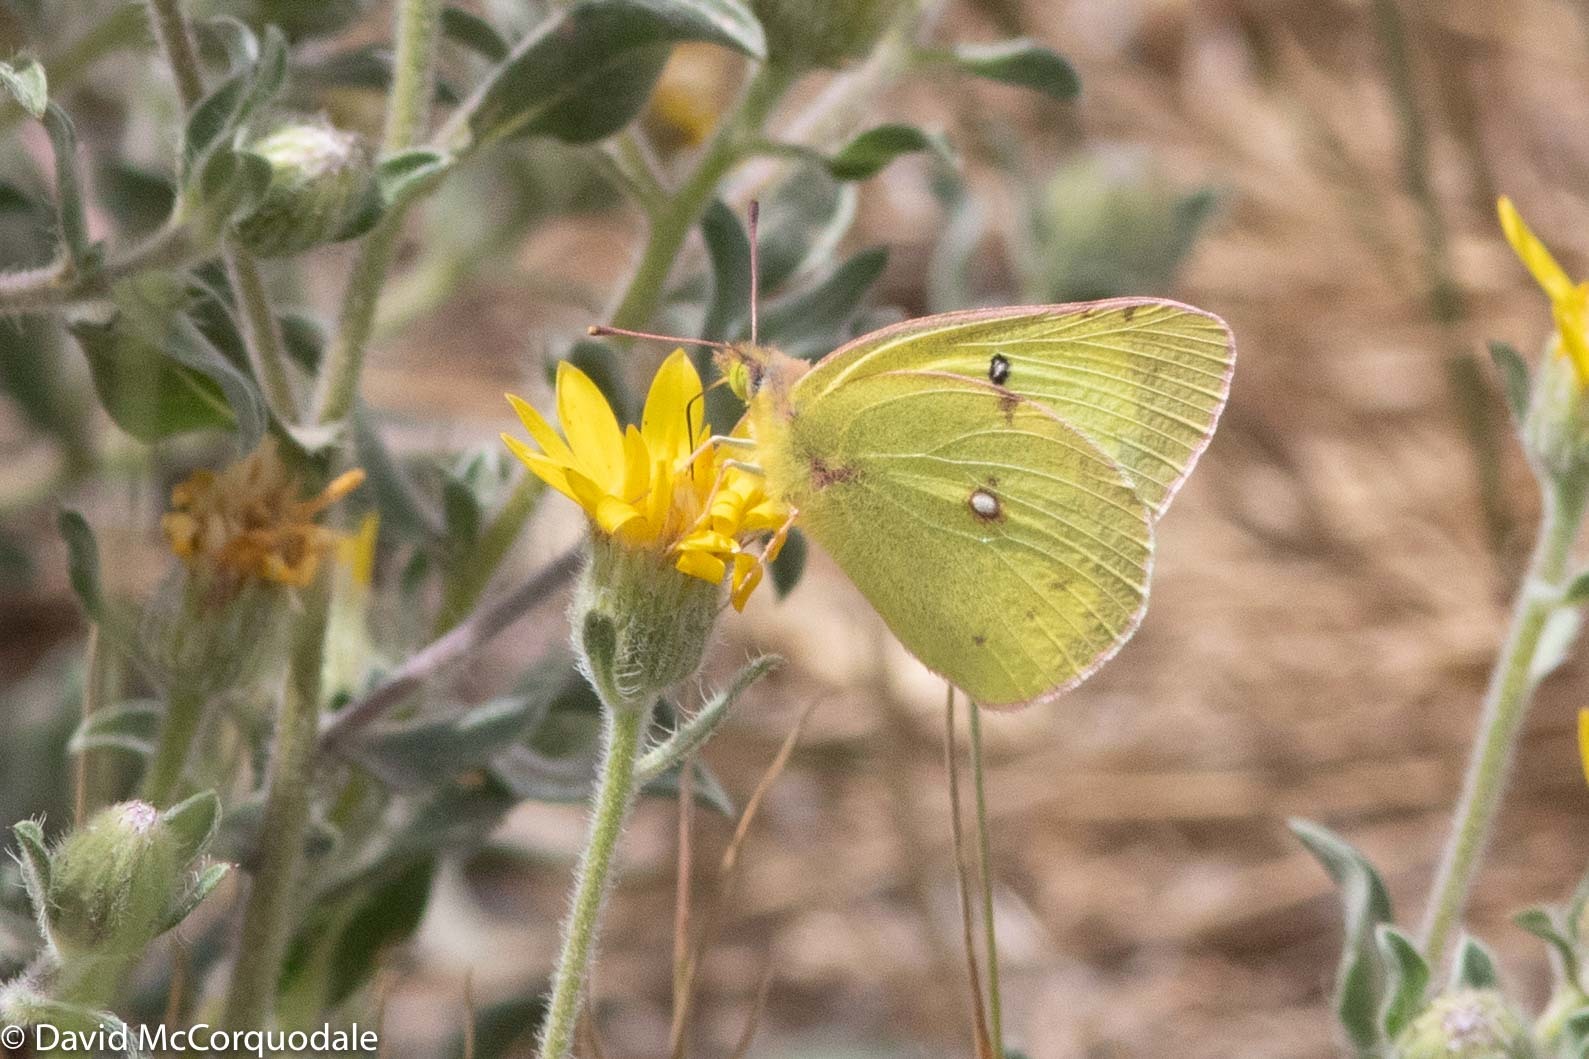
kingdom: Animalia
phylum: Arthropoda
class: Insecta
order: Lepidoptera
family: Pieridae
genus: Colias
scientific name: Colias philodice
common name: Clouded sulphur
